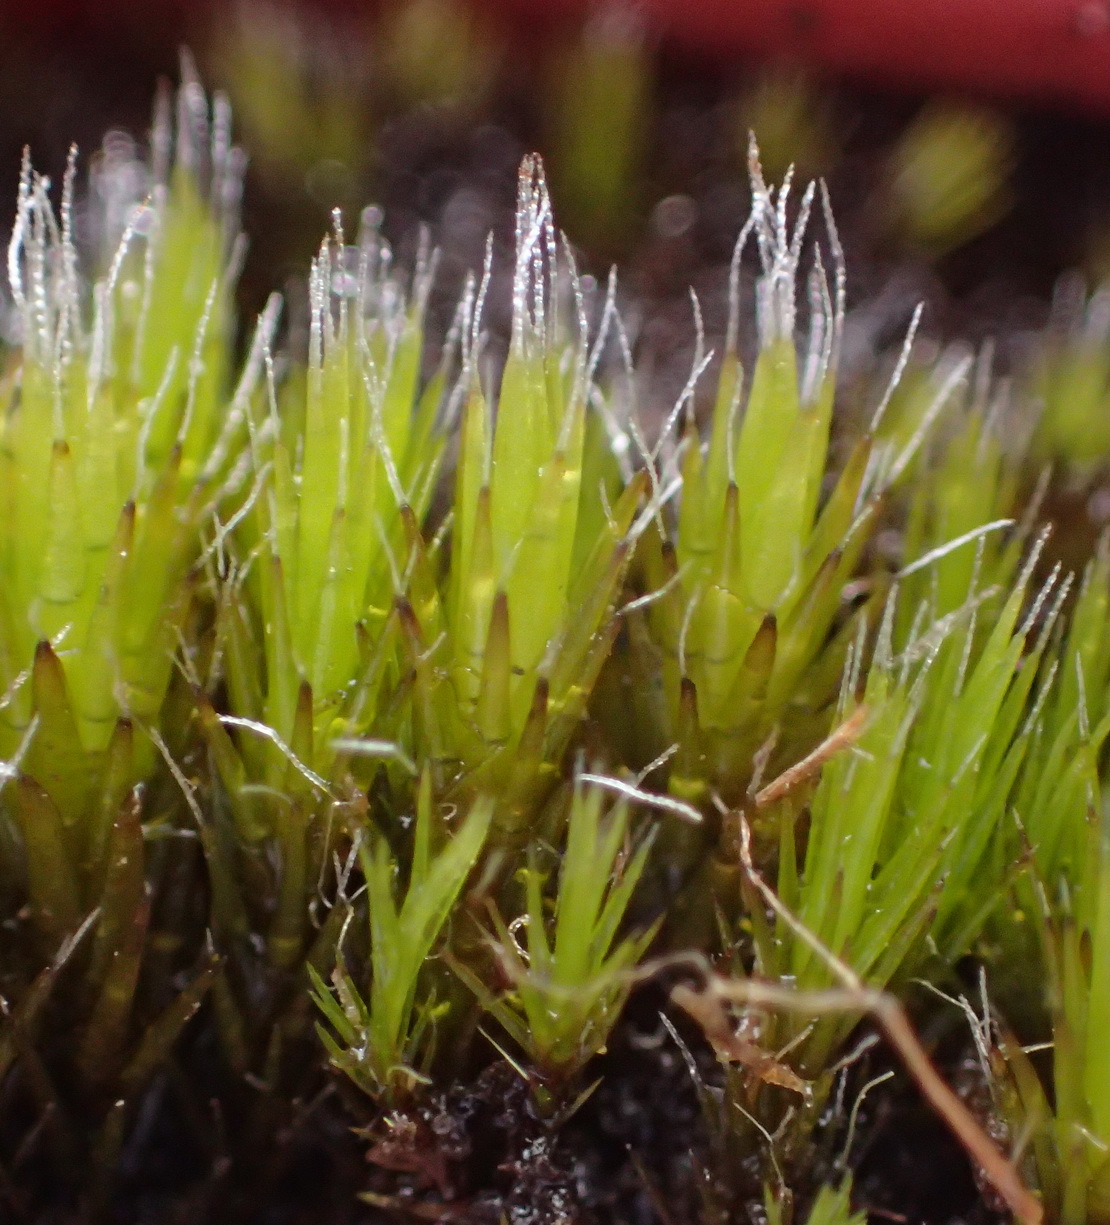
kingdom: Plantae
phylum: Bryophyta
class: Bryopsida
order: Dicranales
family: Leucobryaceae
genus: Campylopus
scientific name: Campylopus pilifer
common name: Campylopus moss
